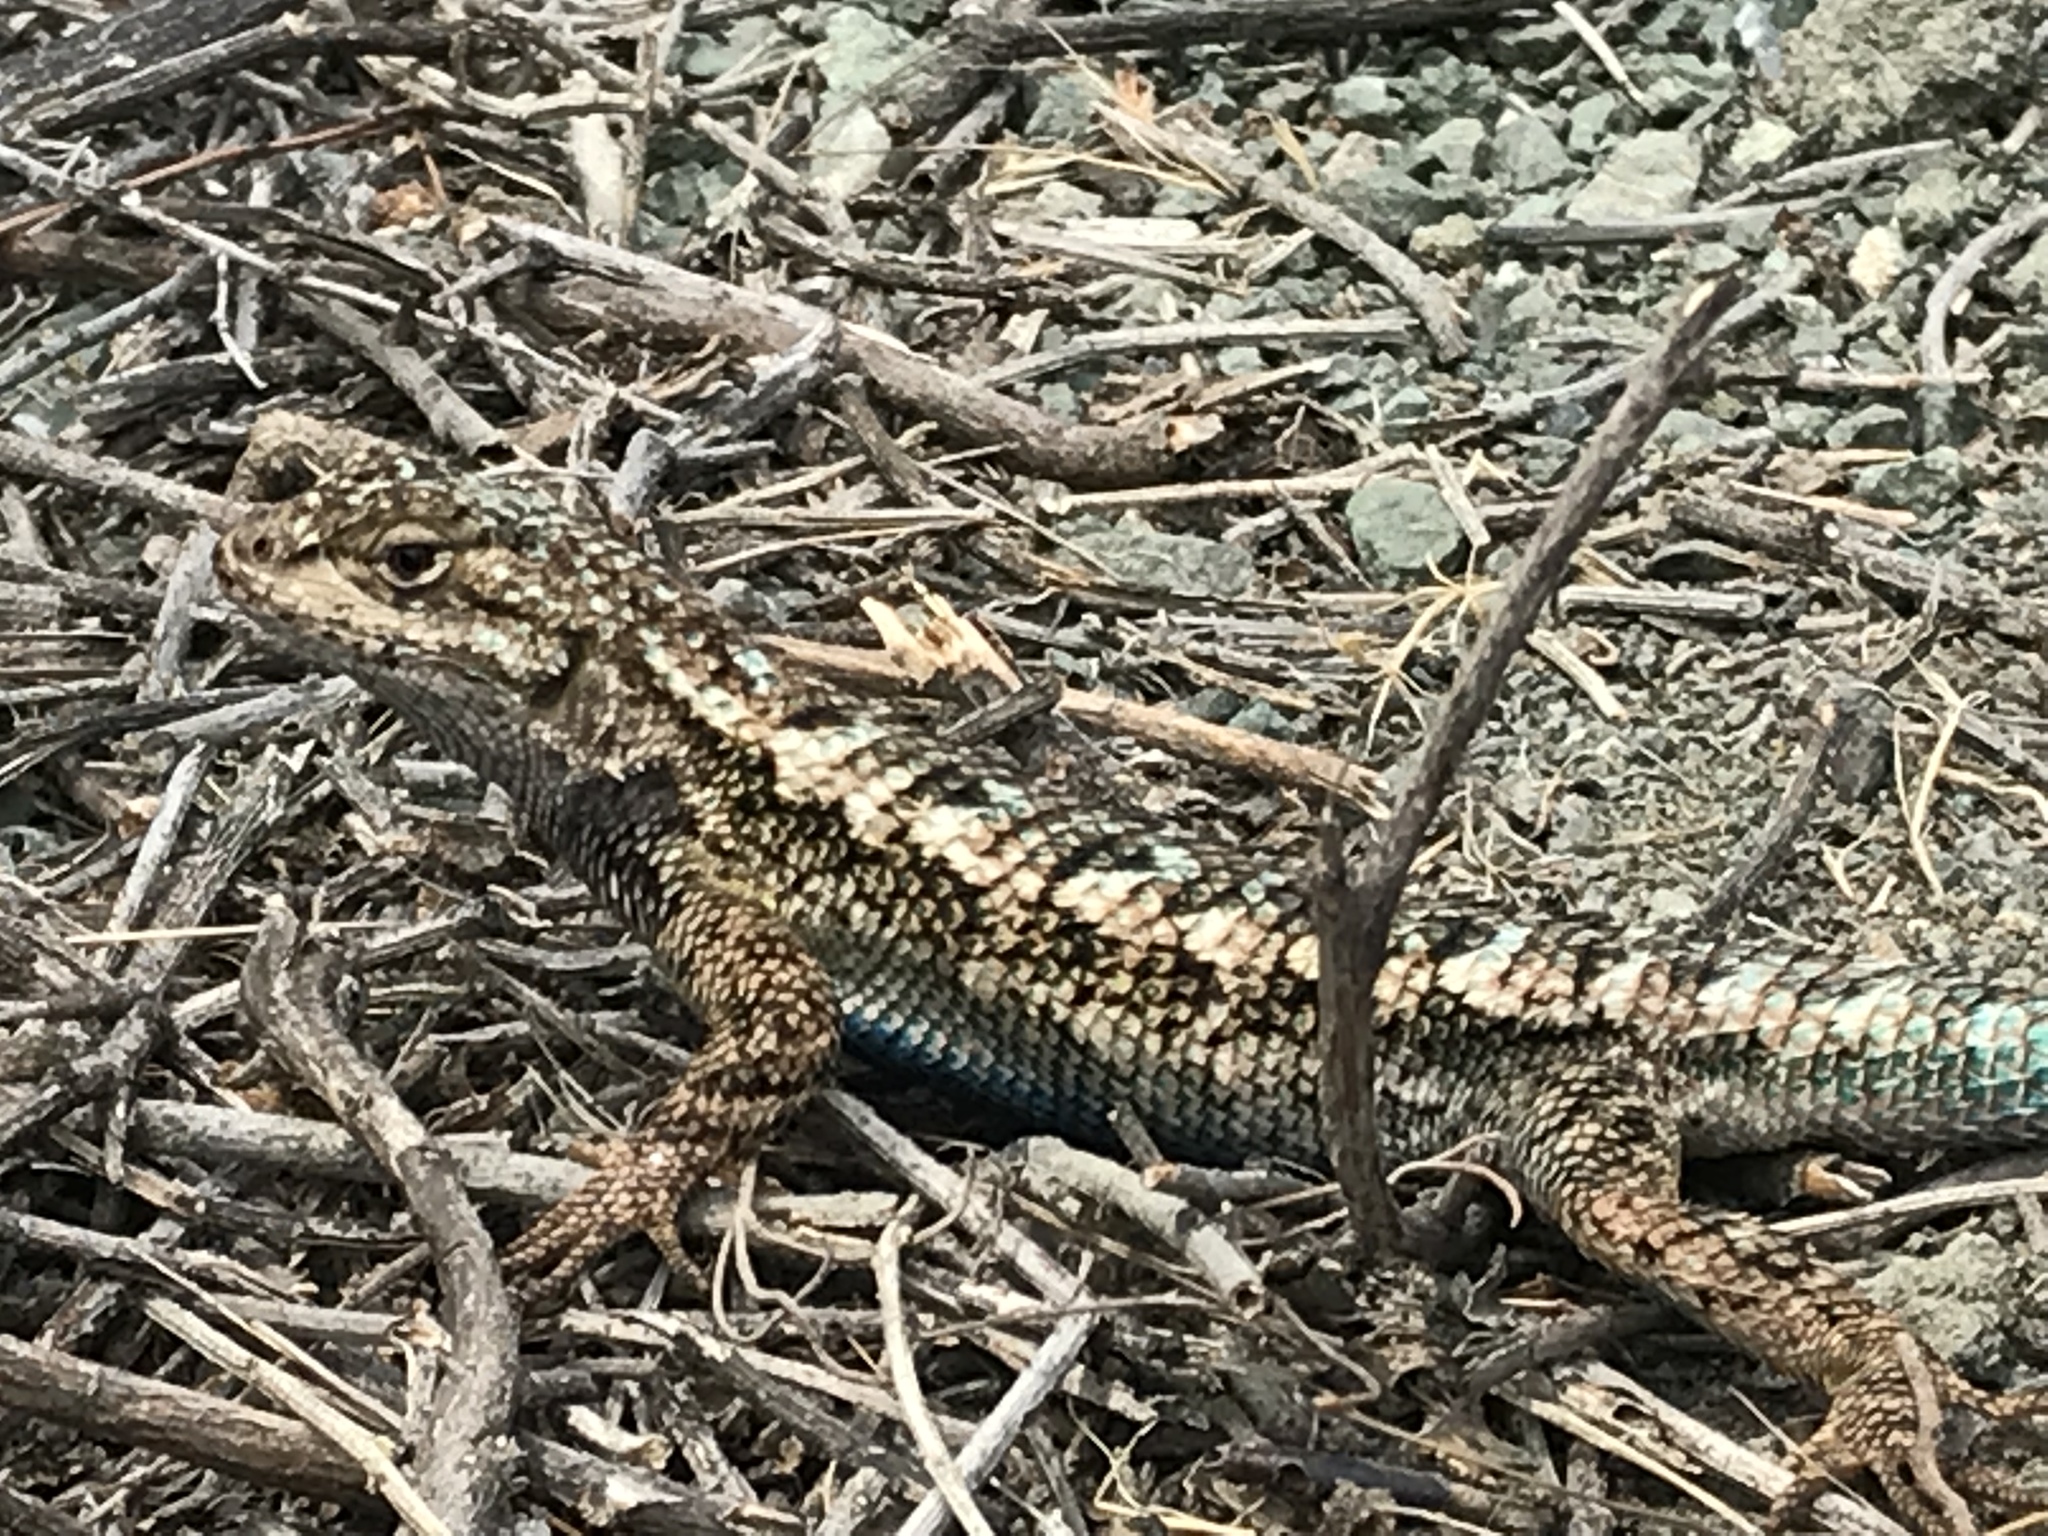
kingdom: Animalia
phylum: Chordata
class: Squamata
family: Phrynosomatidae
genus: Sceloporus
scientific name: Sceloporus occidentalis
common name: Western fence lizard
